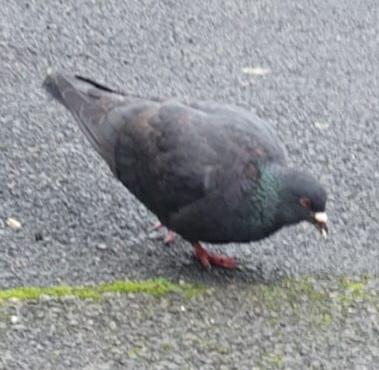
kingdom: Animalia
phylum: Chordata
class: Aves
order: Columbiformes
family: Columbidae
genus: Columba
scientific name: Columba livia
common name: Rock pigeon
